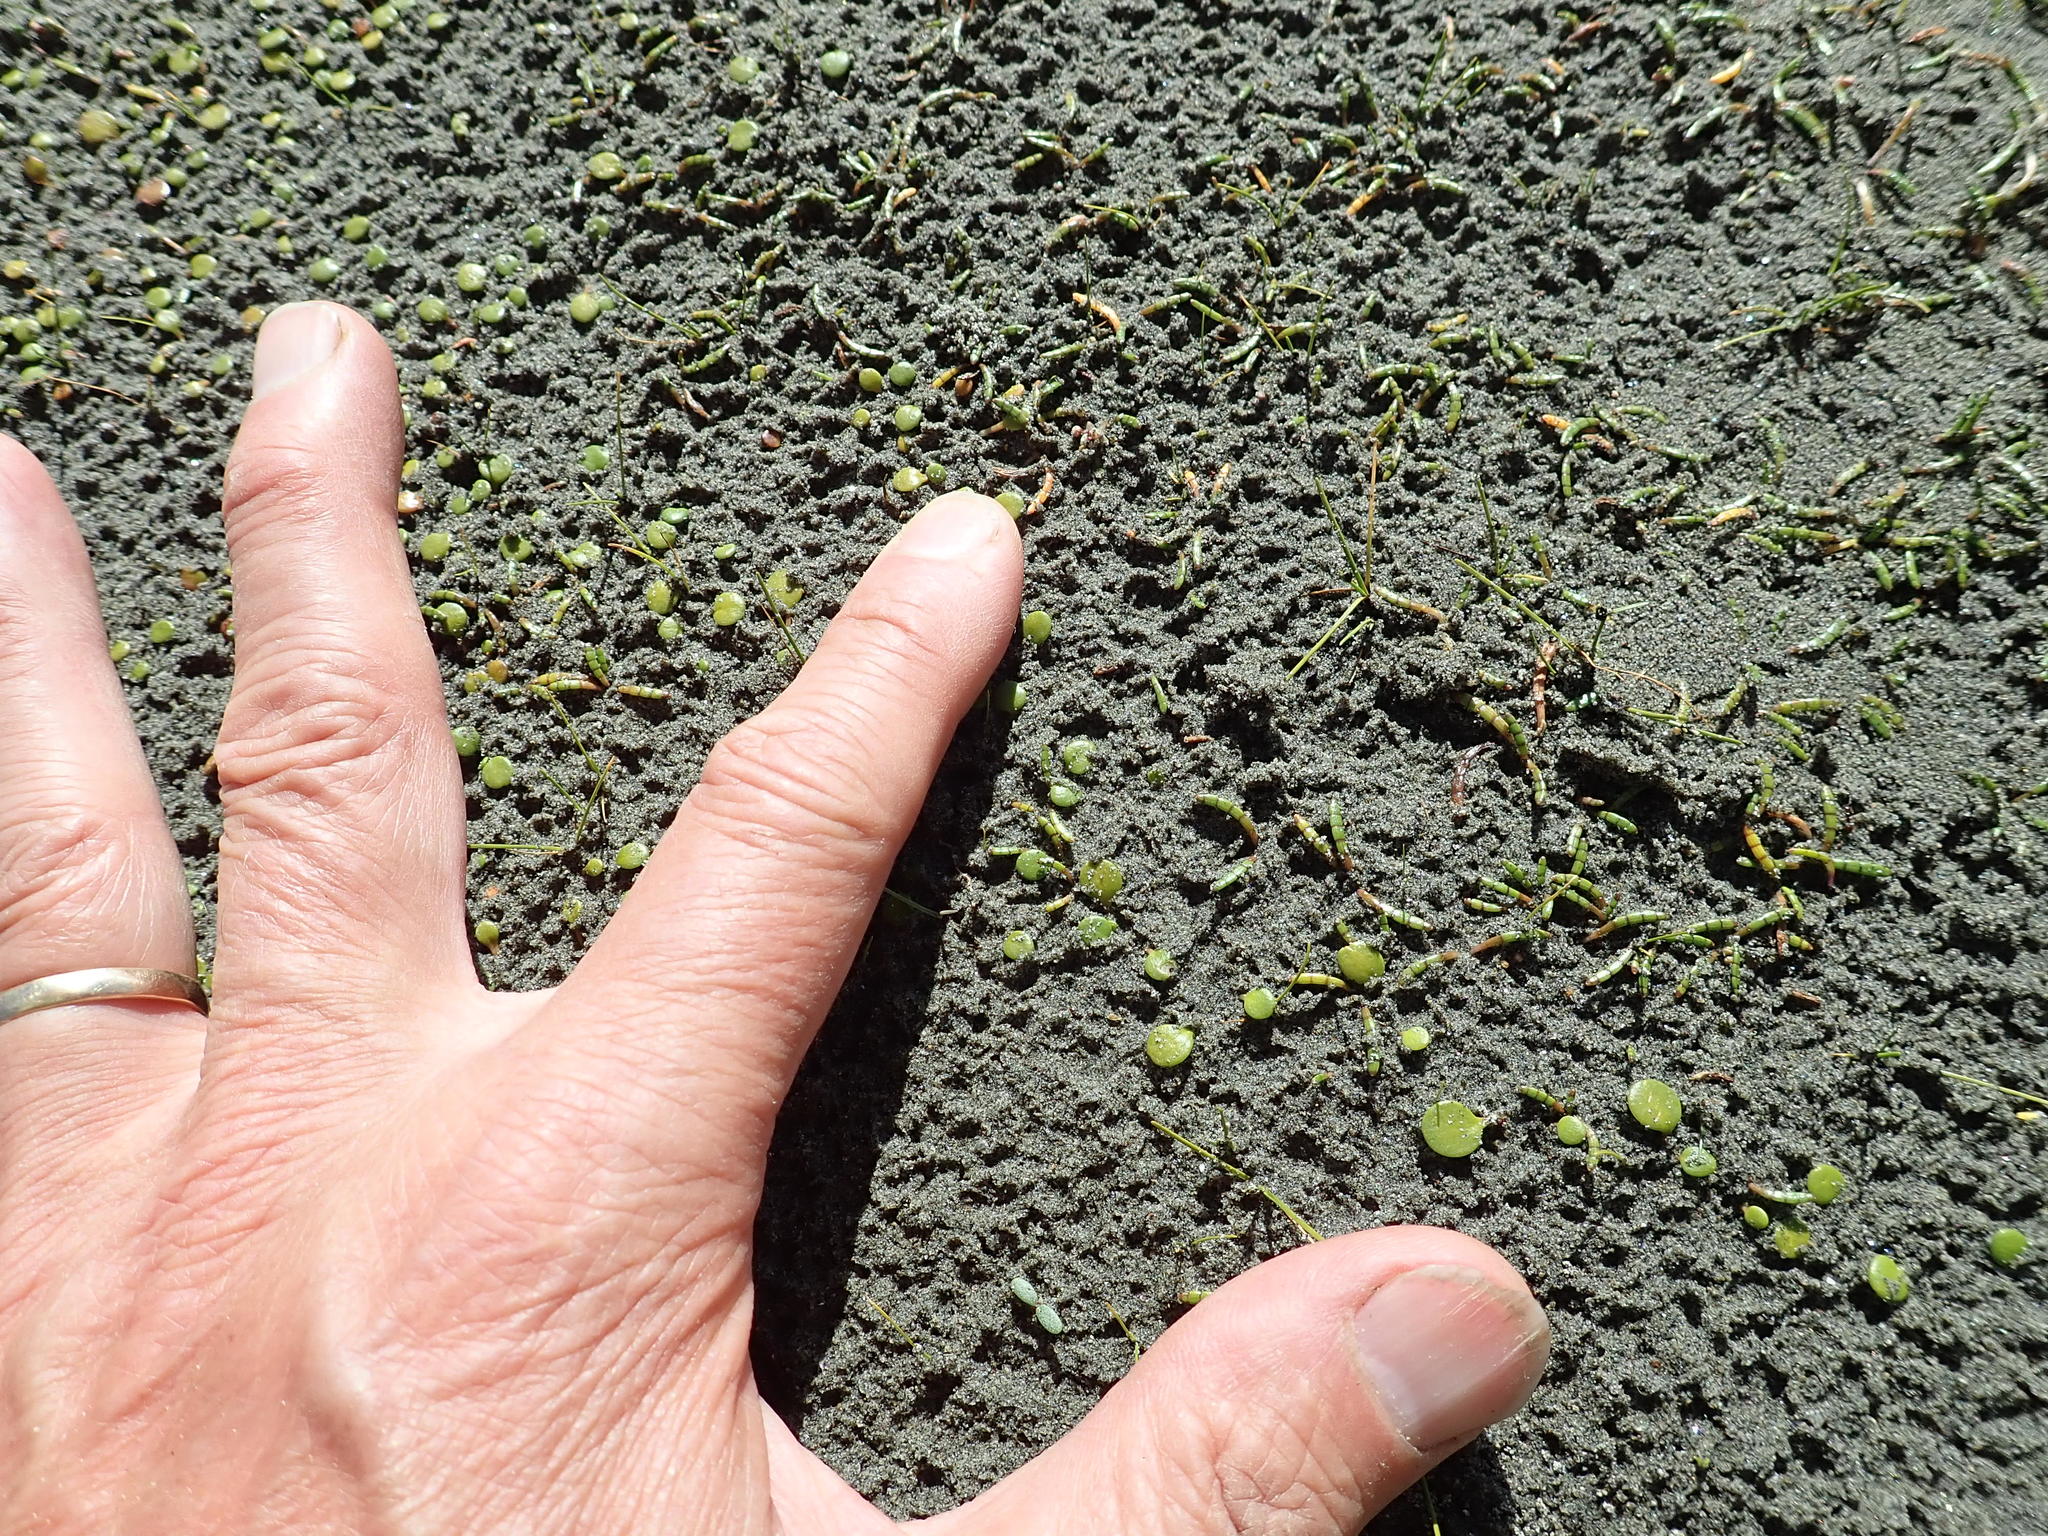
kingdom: Plantae
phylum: Tracheophyta
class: Magnoliopsida
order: Apiales
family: Apiaceae
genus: Lilaeopsis
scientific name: Lilaeopsis novae-zelandiae
